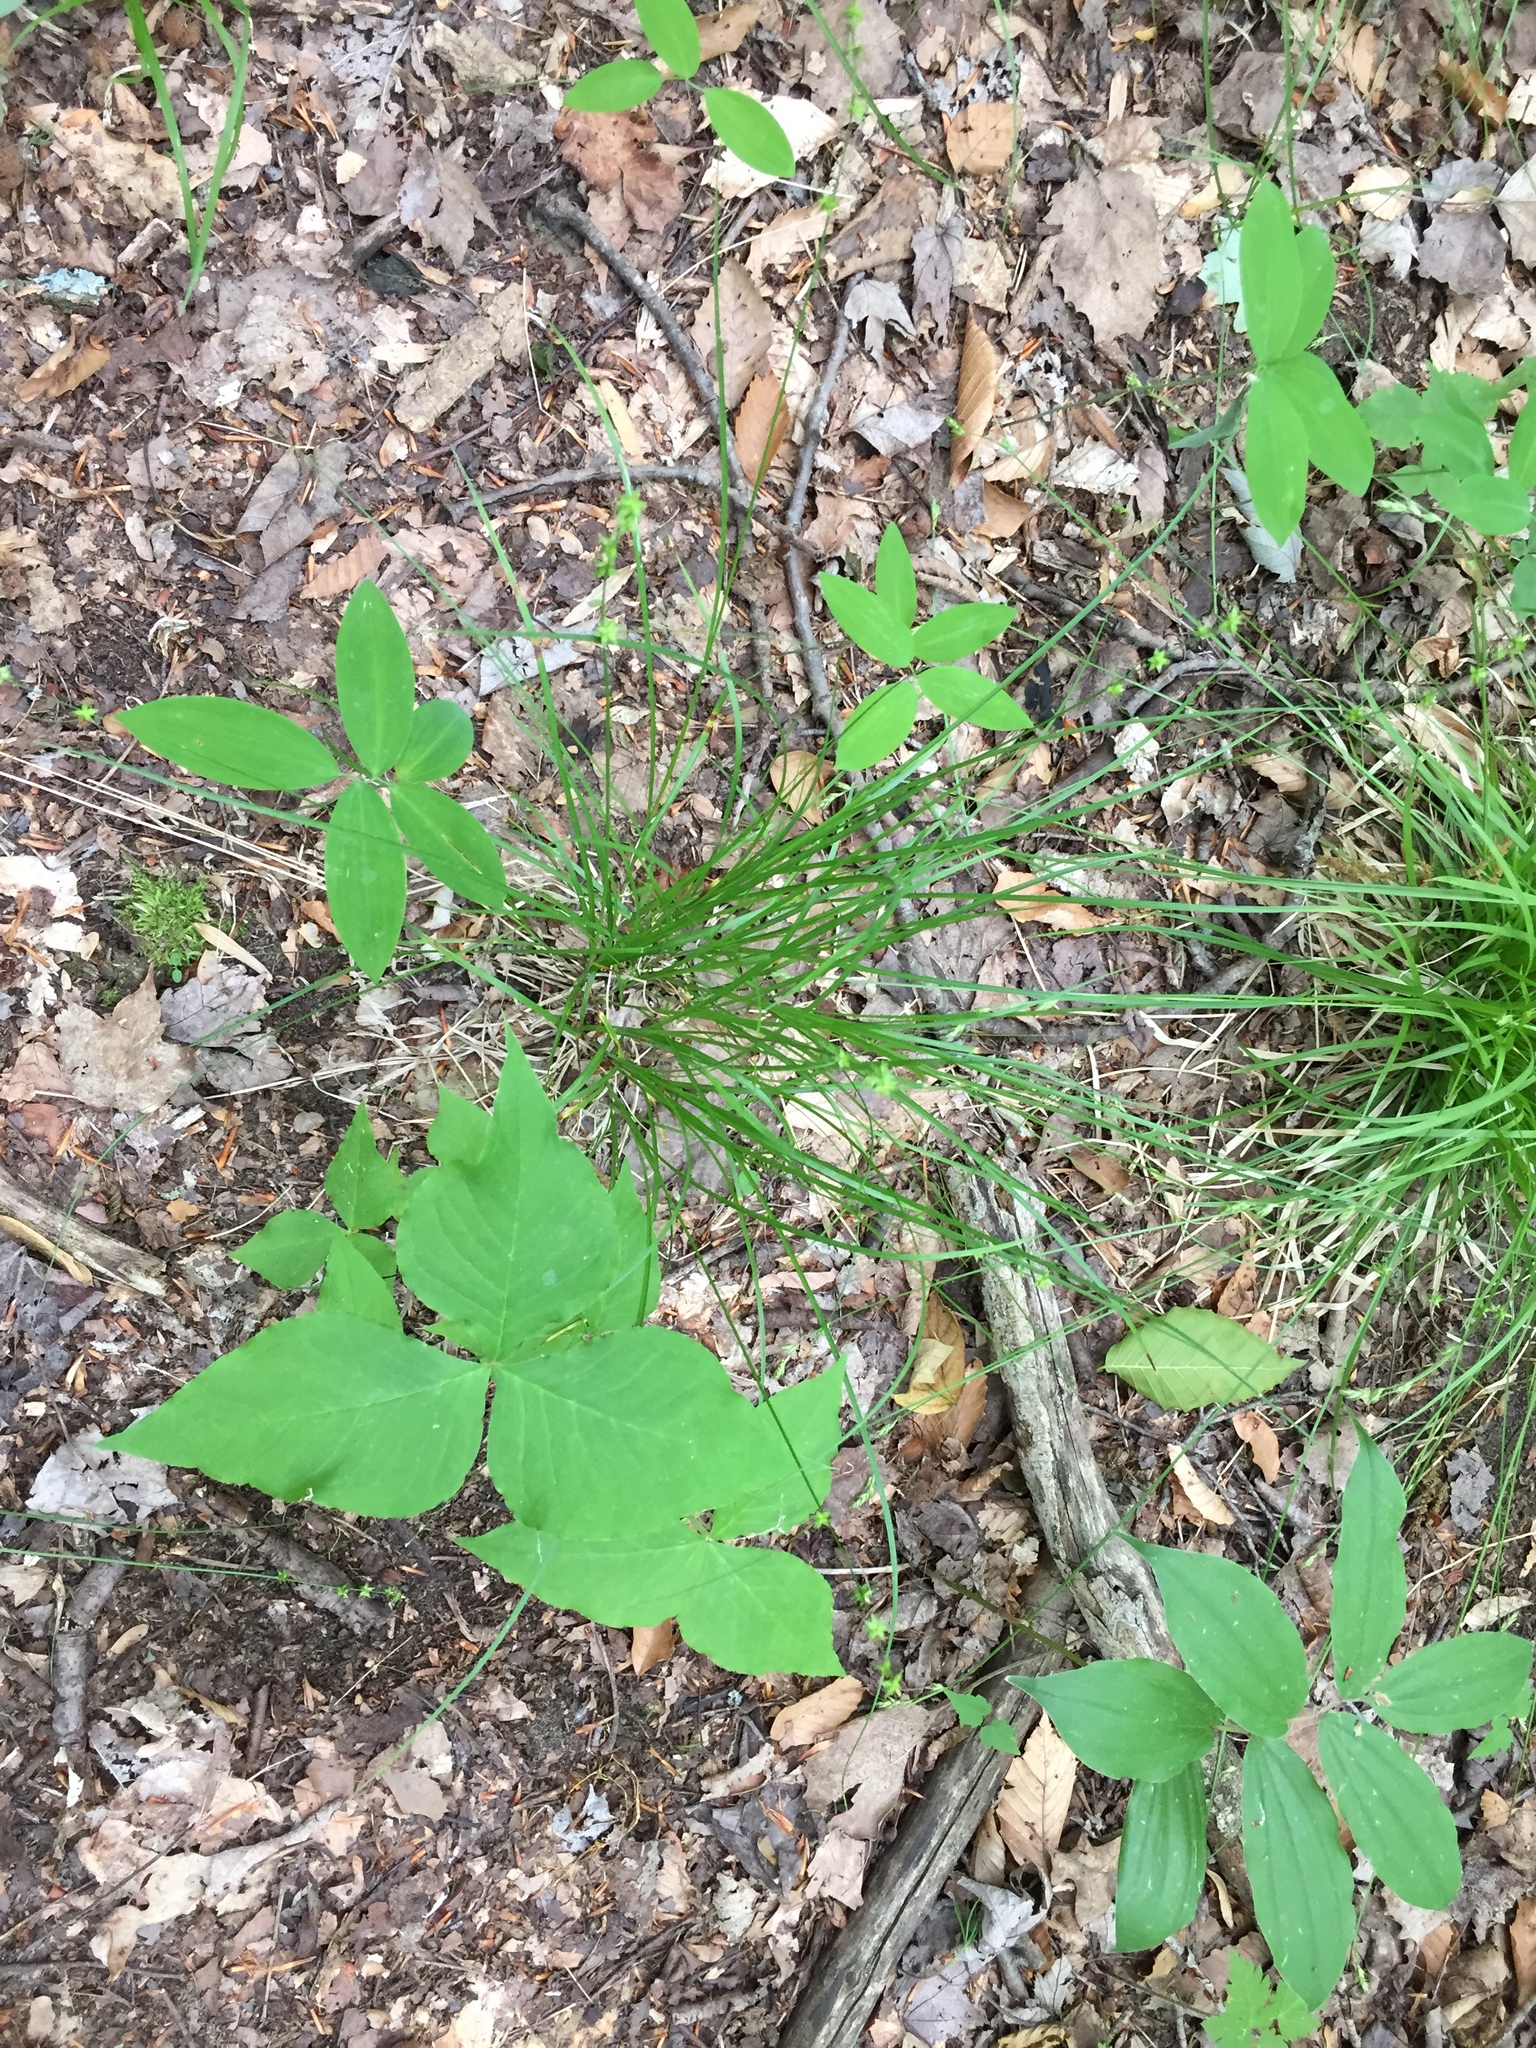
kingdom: Plantae
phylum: Tracheophyta
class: Liliopsida
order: Poales
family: Cyperaceae
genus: Carex
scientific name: Carex rosea
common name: Curly-styled wood sedge
